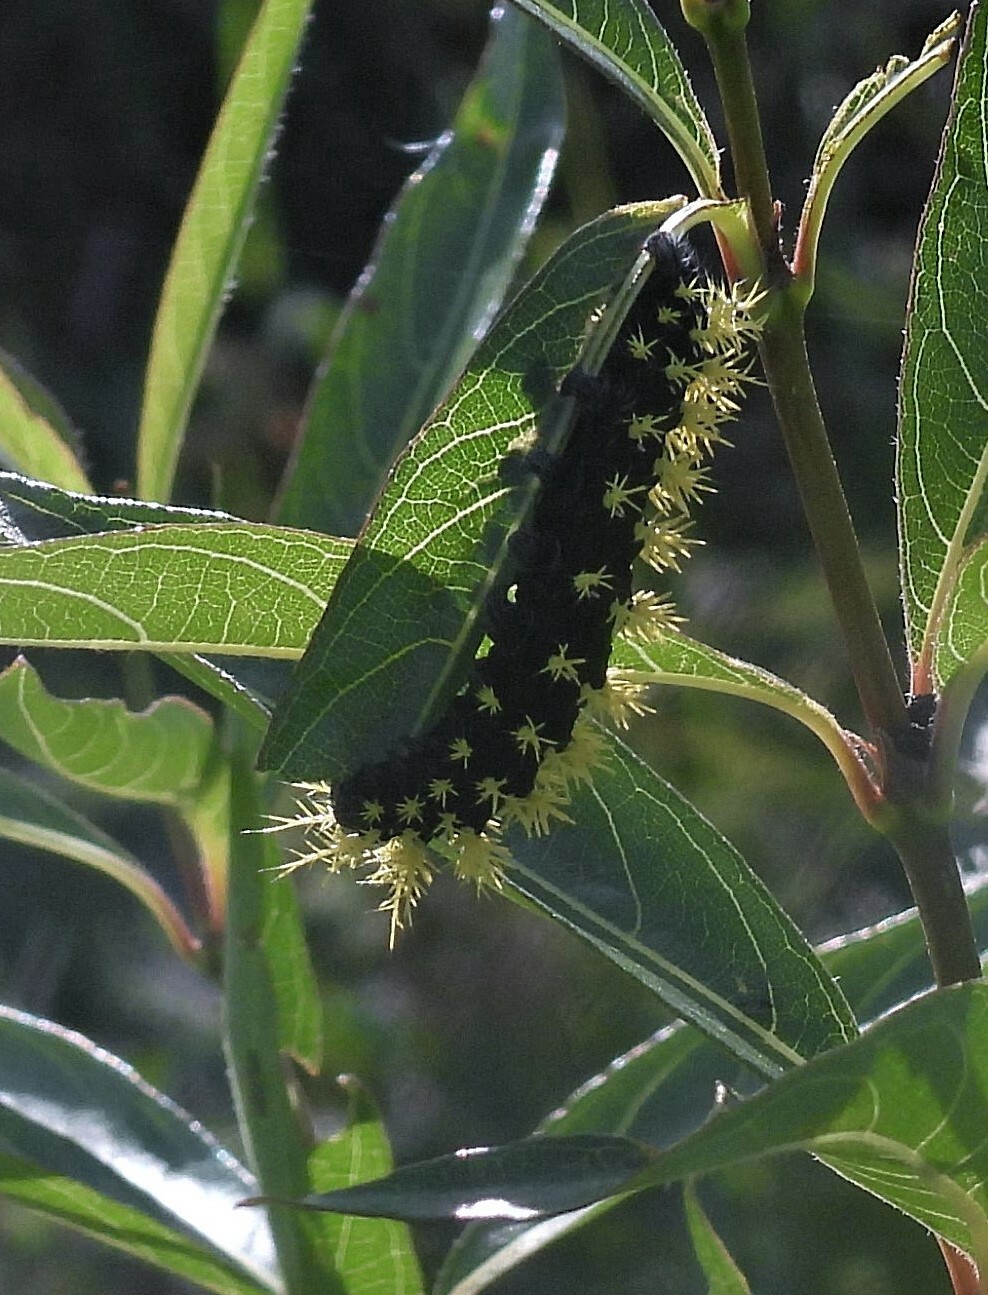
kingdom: Animalia
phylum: Arthropoda
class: Insecta
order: Lepidoptera
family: Saturniidae
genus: Leucanella
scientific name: Leucanella viridescens
